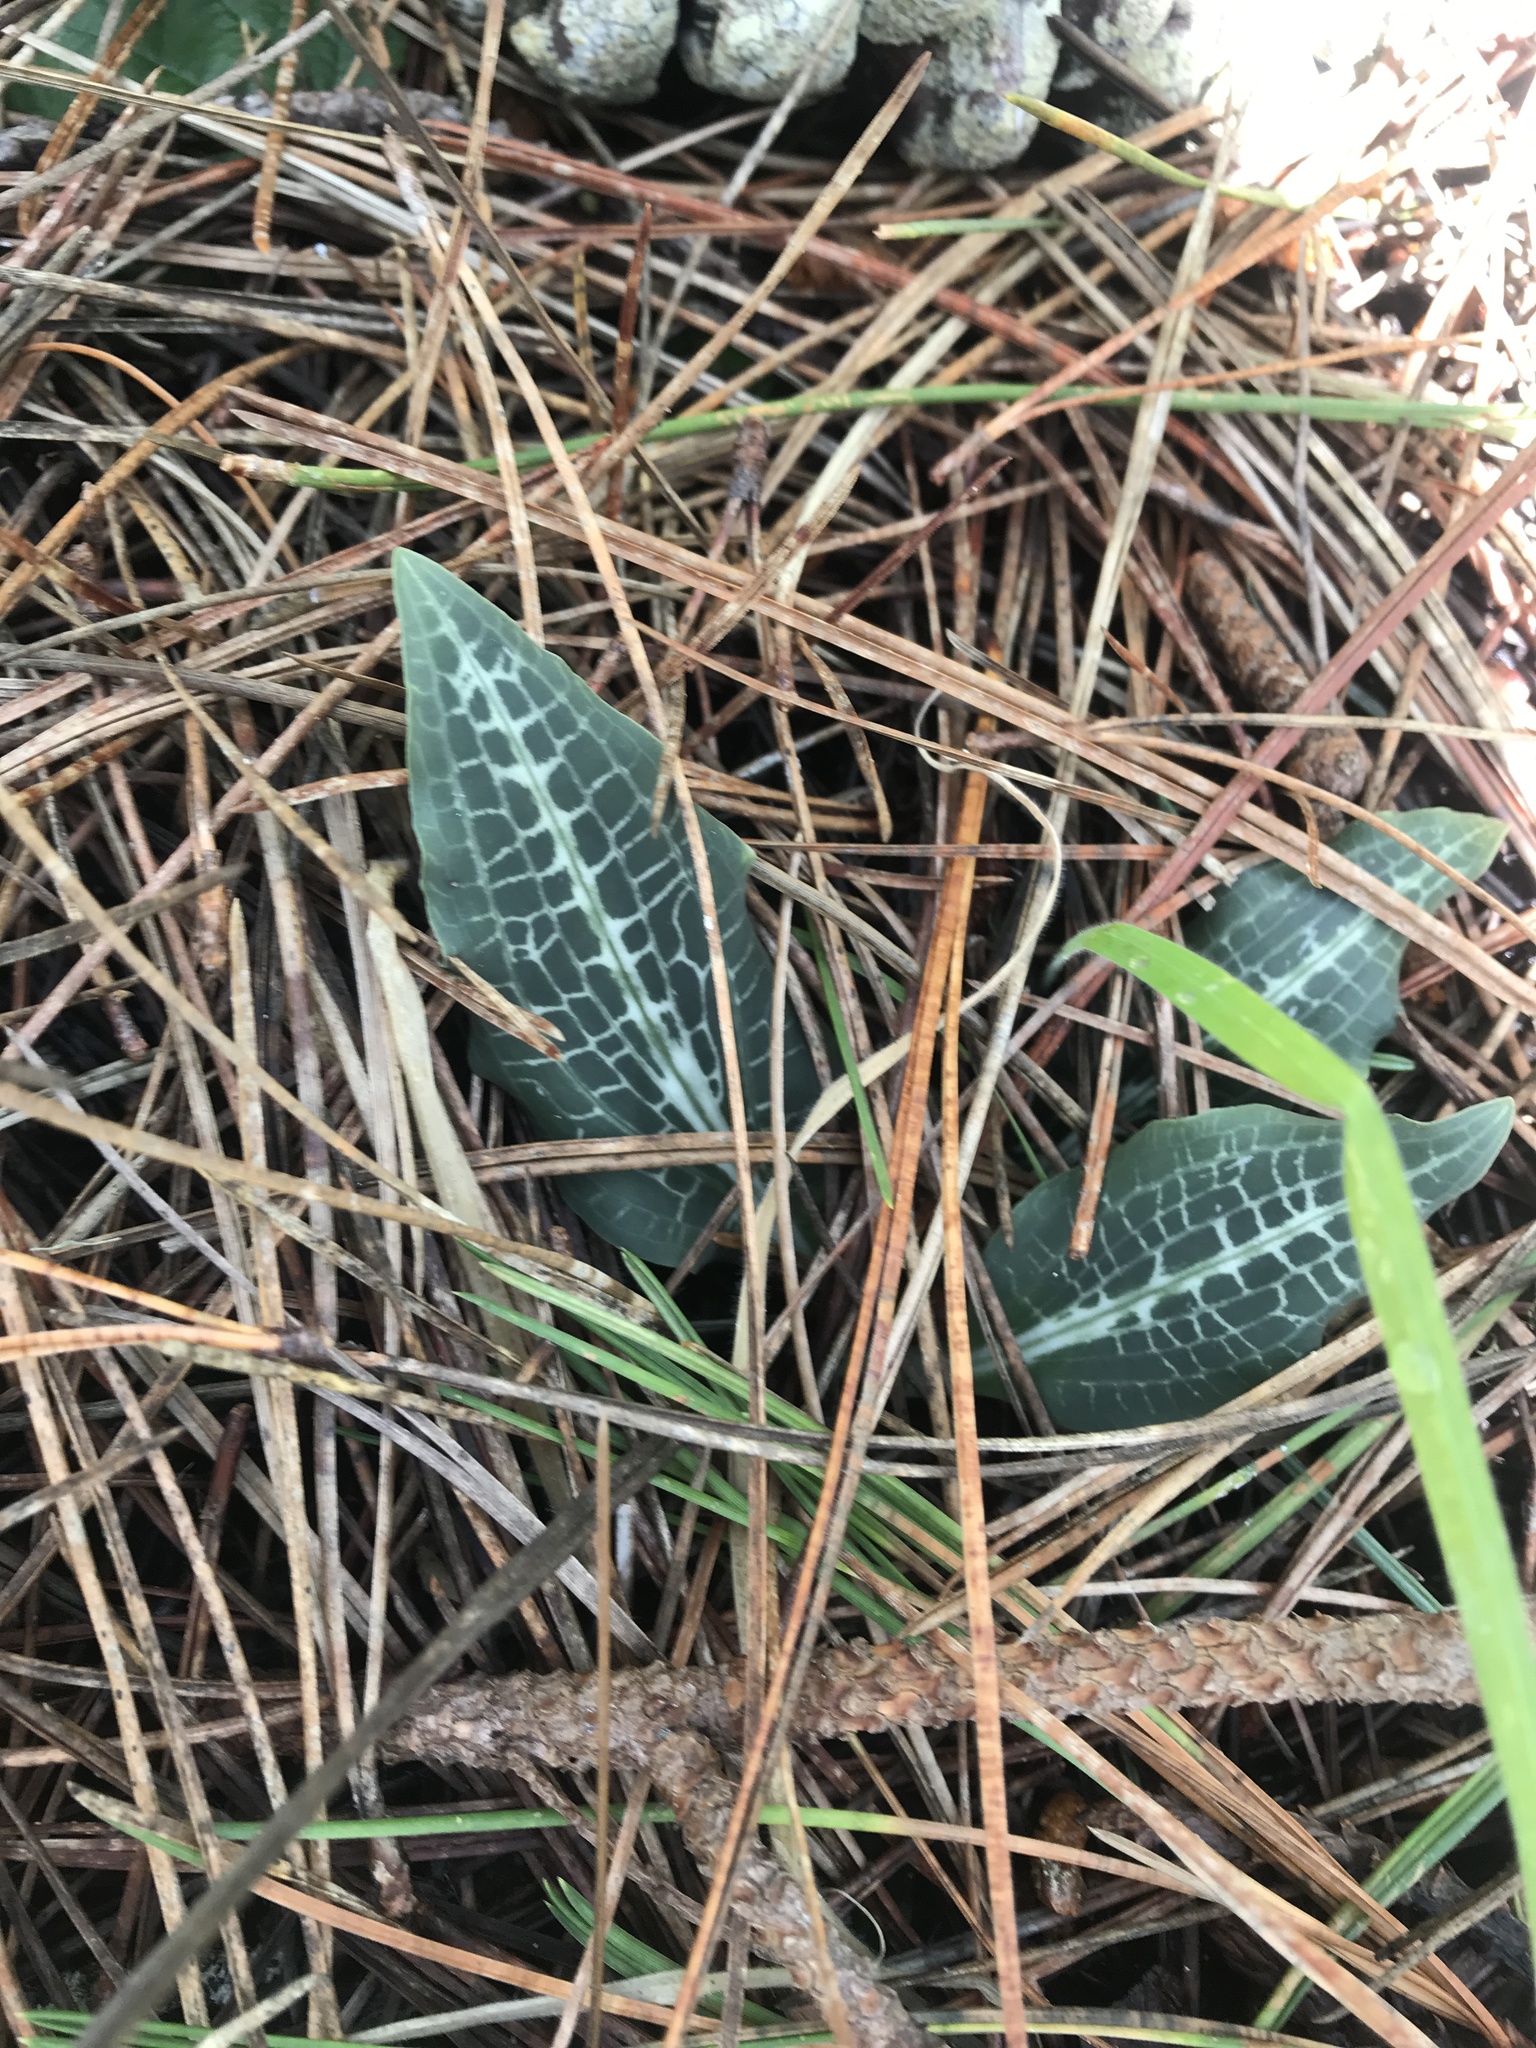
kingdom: Plantae
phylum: Tracheophyta
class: Liliopsida
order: Asparagales
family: Orchidaceae
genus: Goodyera
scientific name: Goodyera oblongifolia
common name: Giant rattlesnake-plantain
